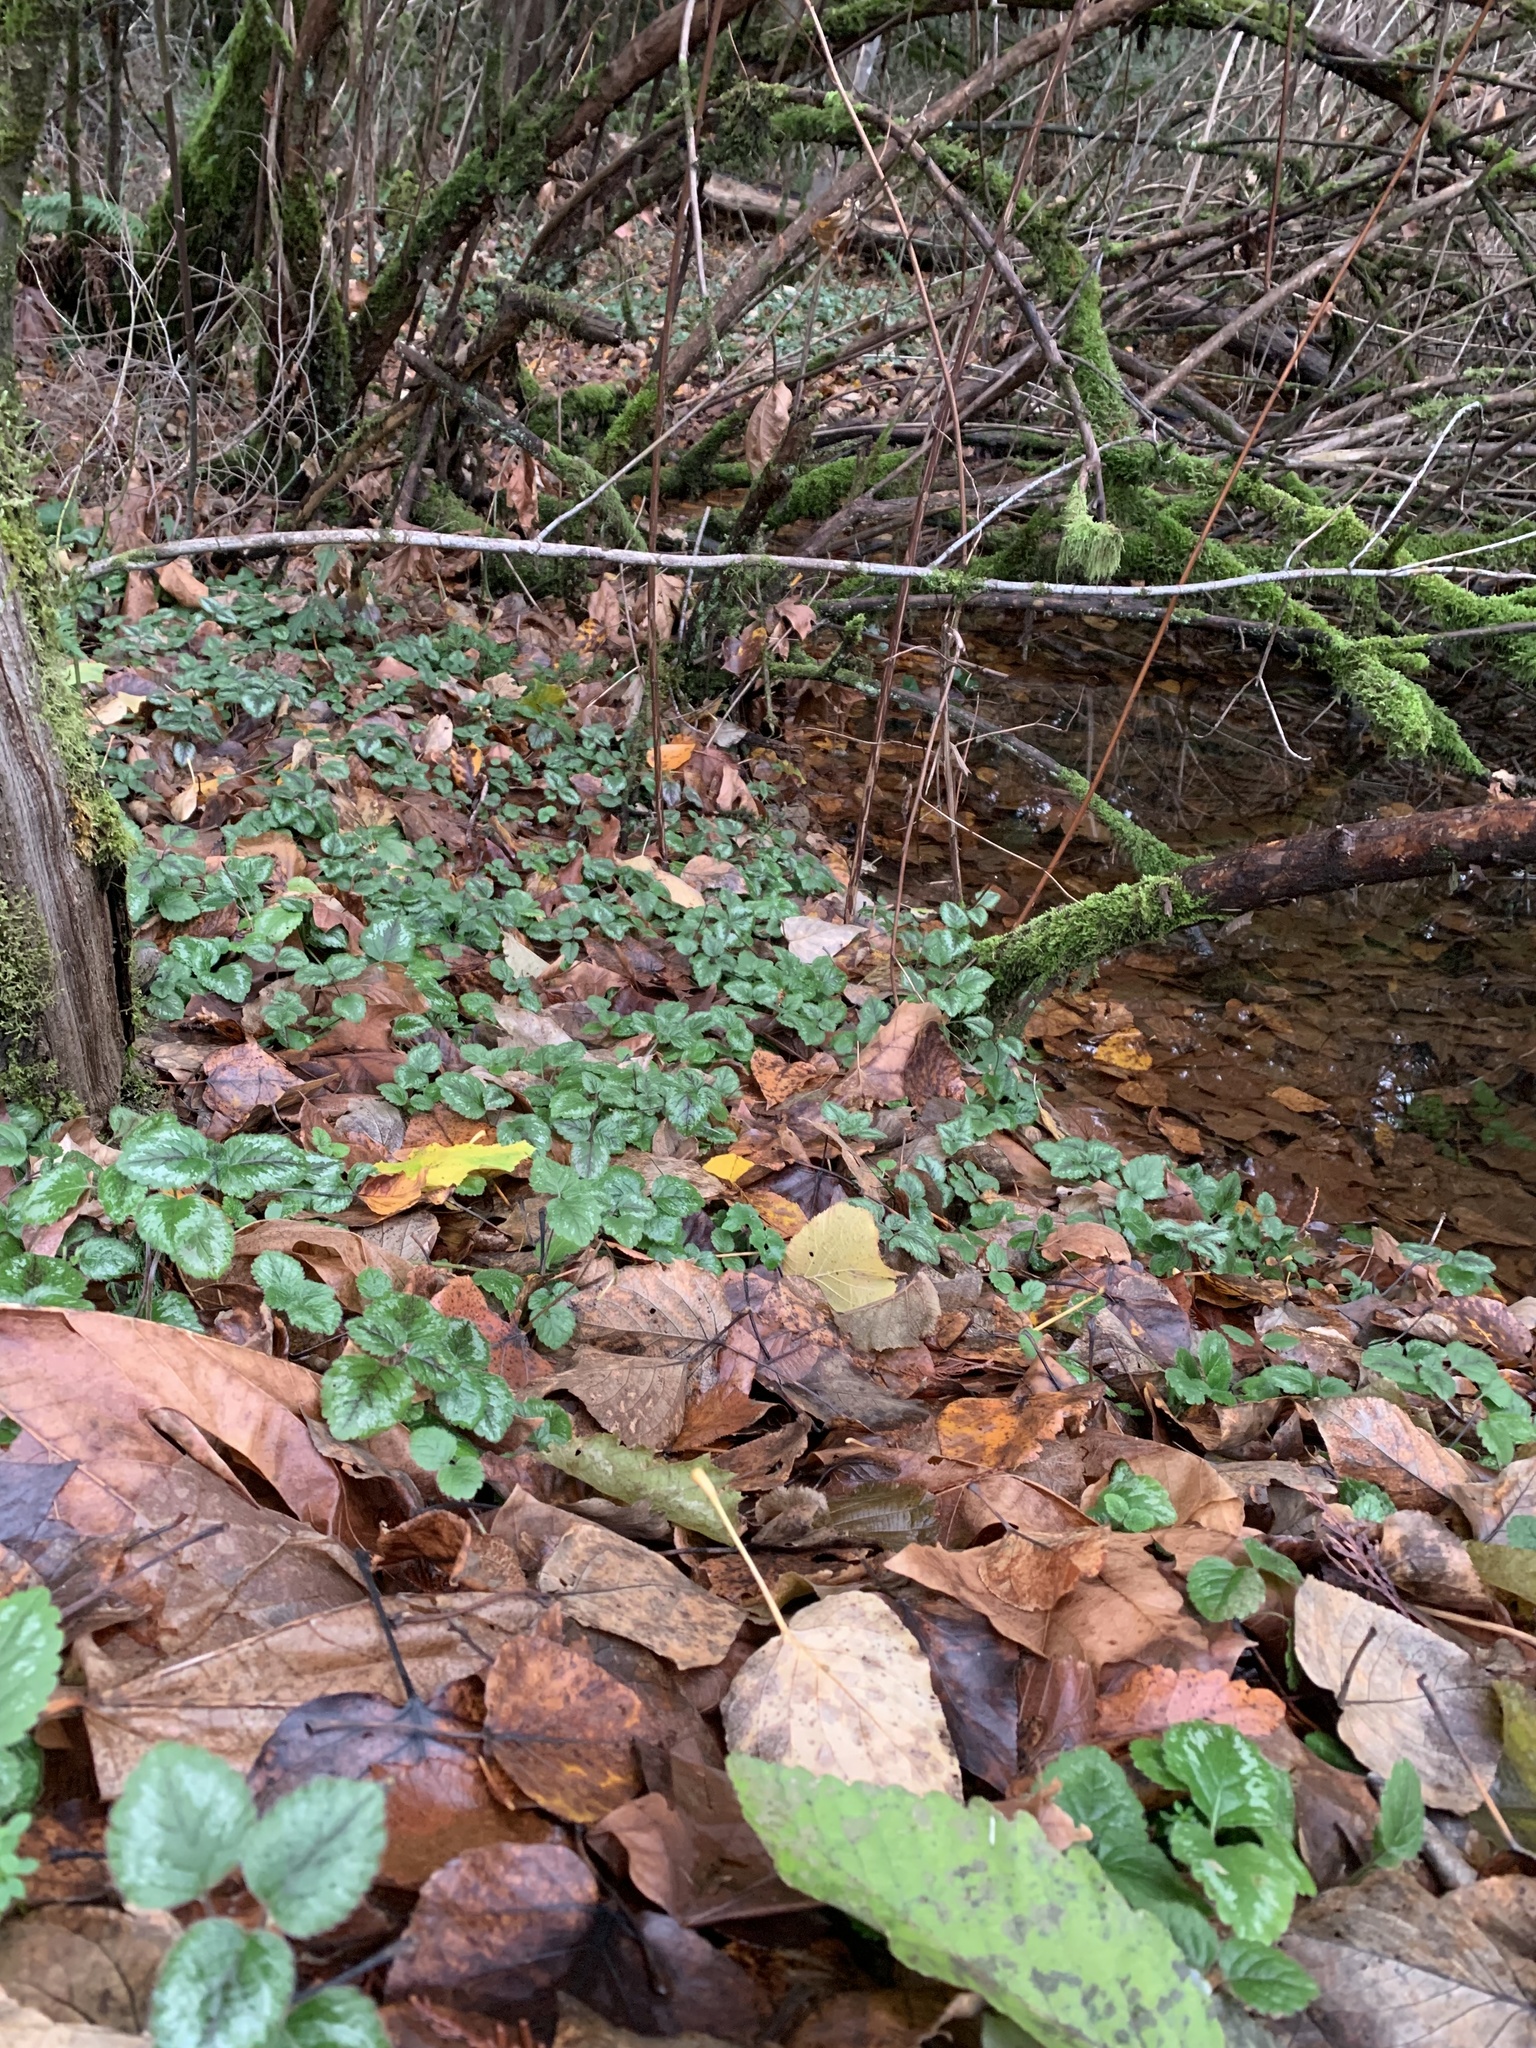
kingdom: Plantae
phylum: Tracheophyta
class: Magnoliopsida
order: Lamiales
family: Lamiaceae
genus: Lamium
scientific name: Lamium galeobdolon
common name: Yellow archangel
